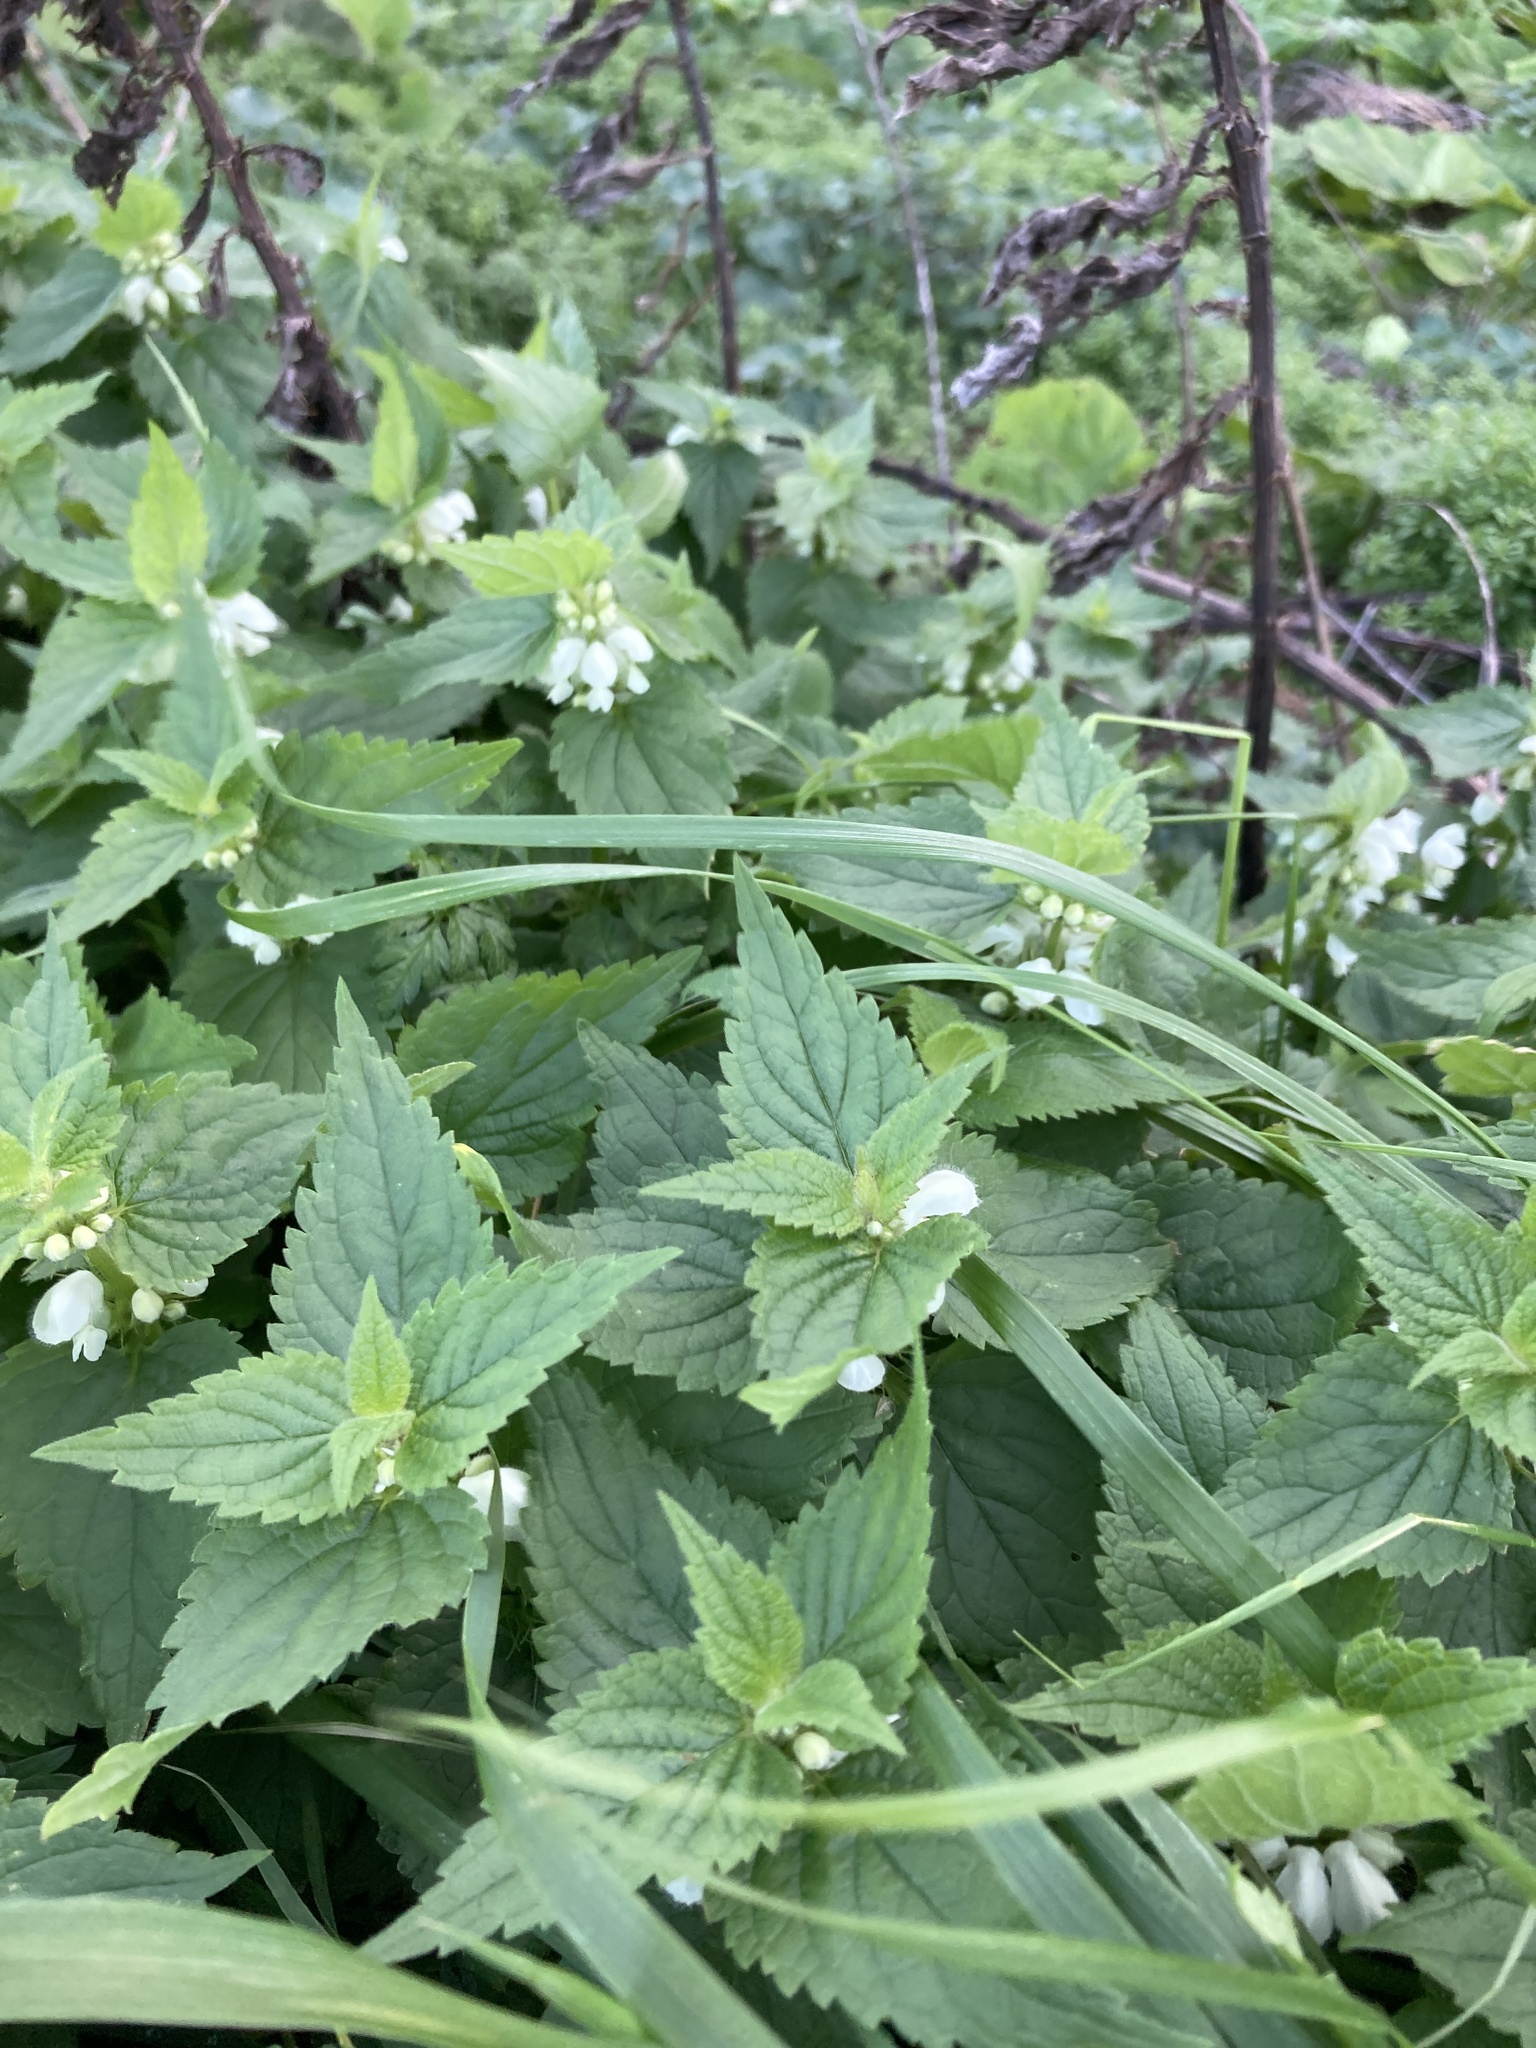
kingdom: Plantae
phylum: Tracheophyta
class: Magnoliopsida
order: Lamiales
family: Lamiaceae
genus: Lamium
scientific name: Lamium album
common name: White dead-nettle
